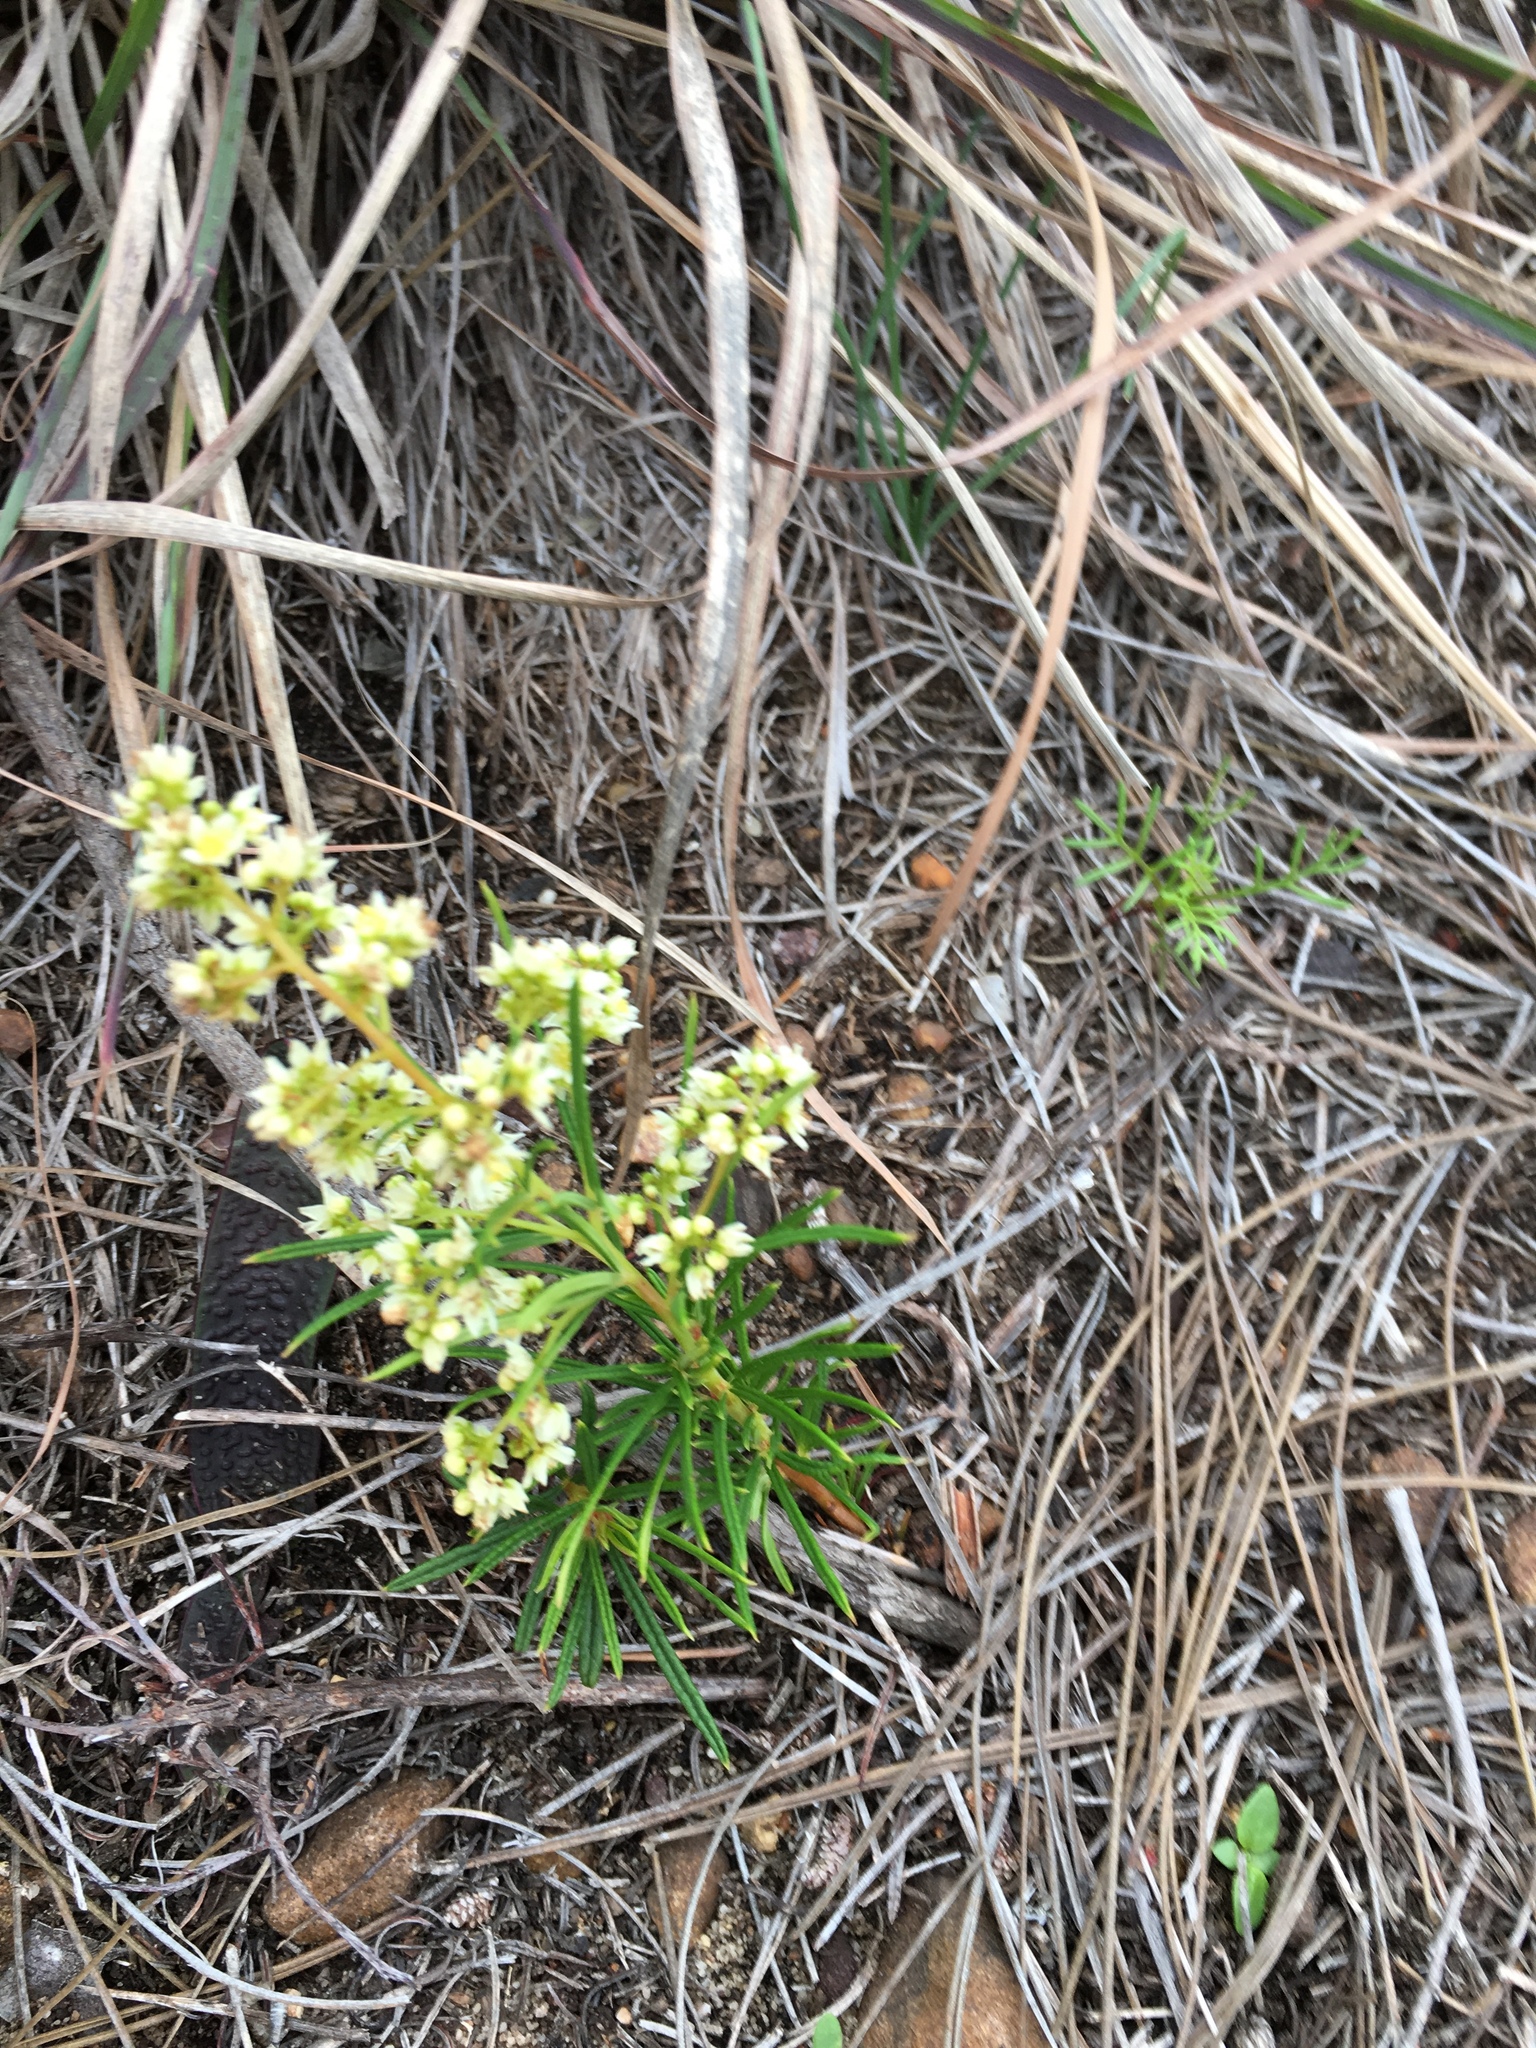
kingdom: Plantae
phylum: Tracheophyta
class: Magnoliopsida
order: Sapindales
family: Anacardiaceae
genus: Searsia
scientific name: Searsia rosmarinifolia
